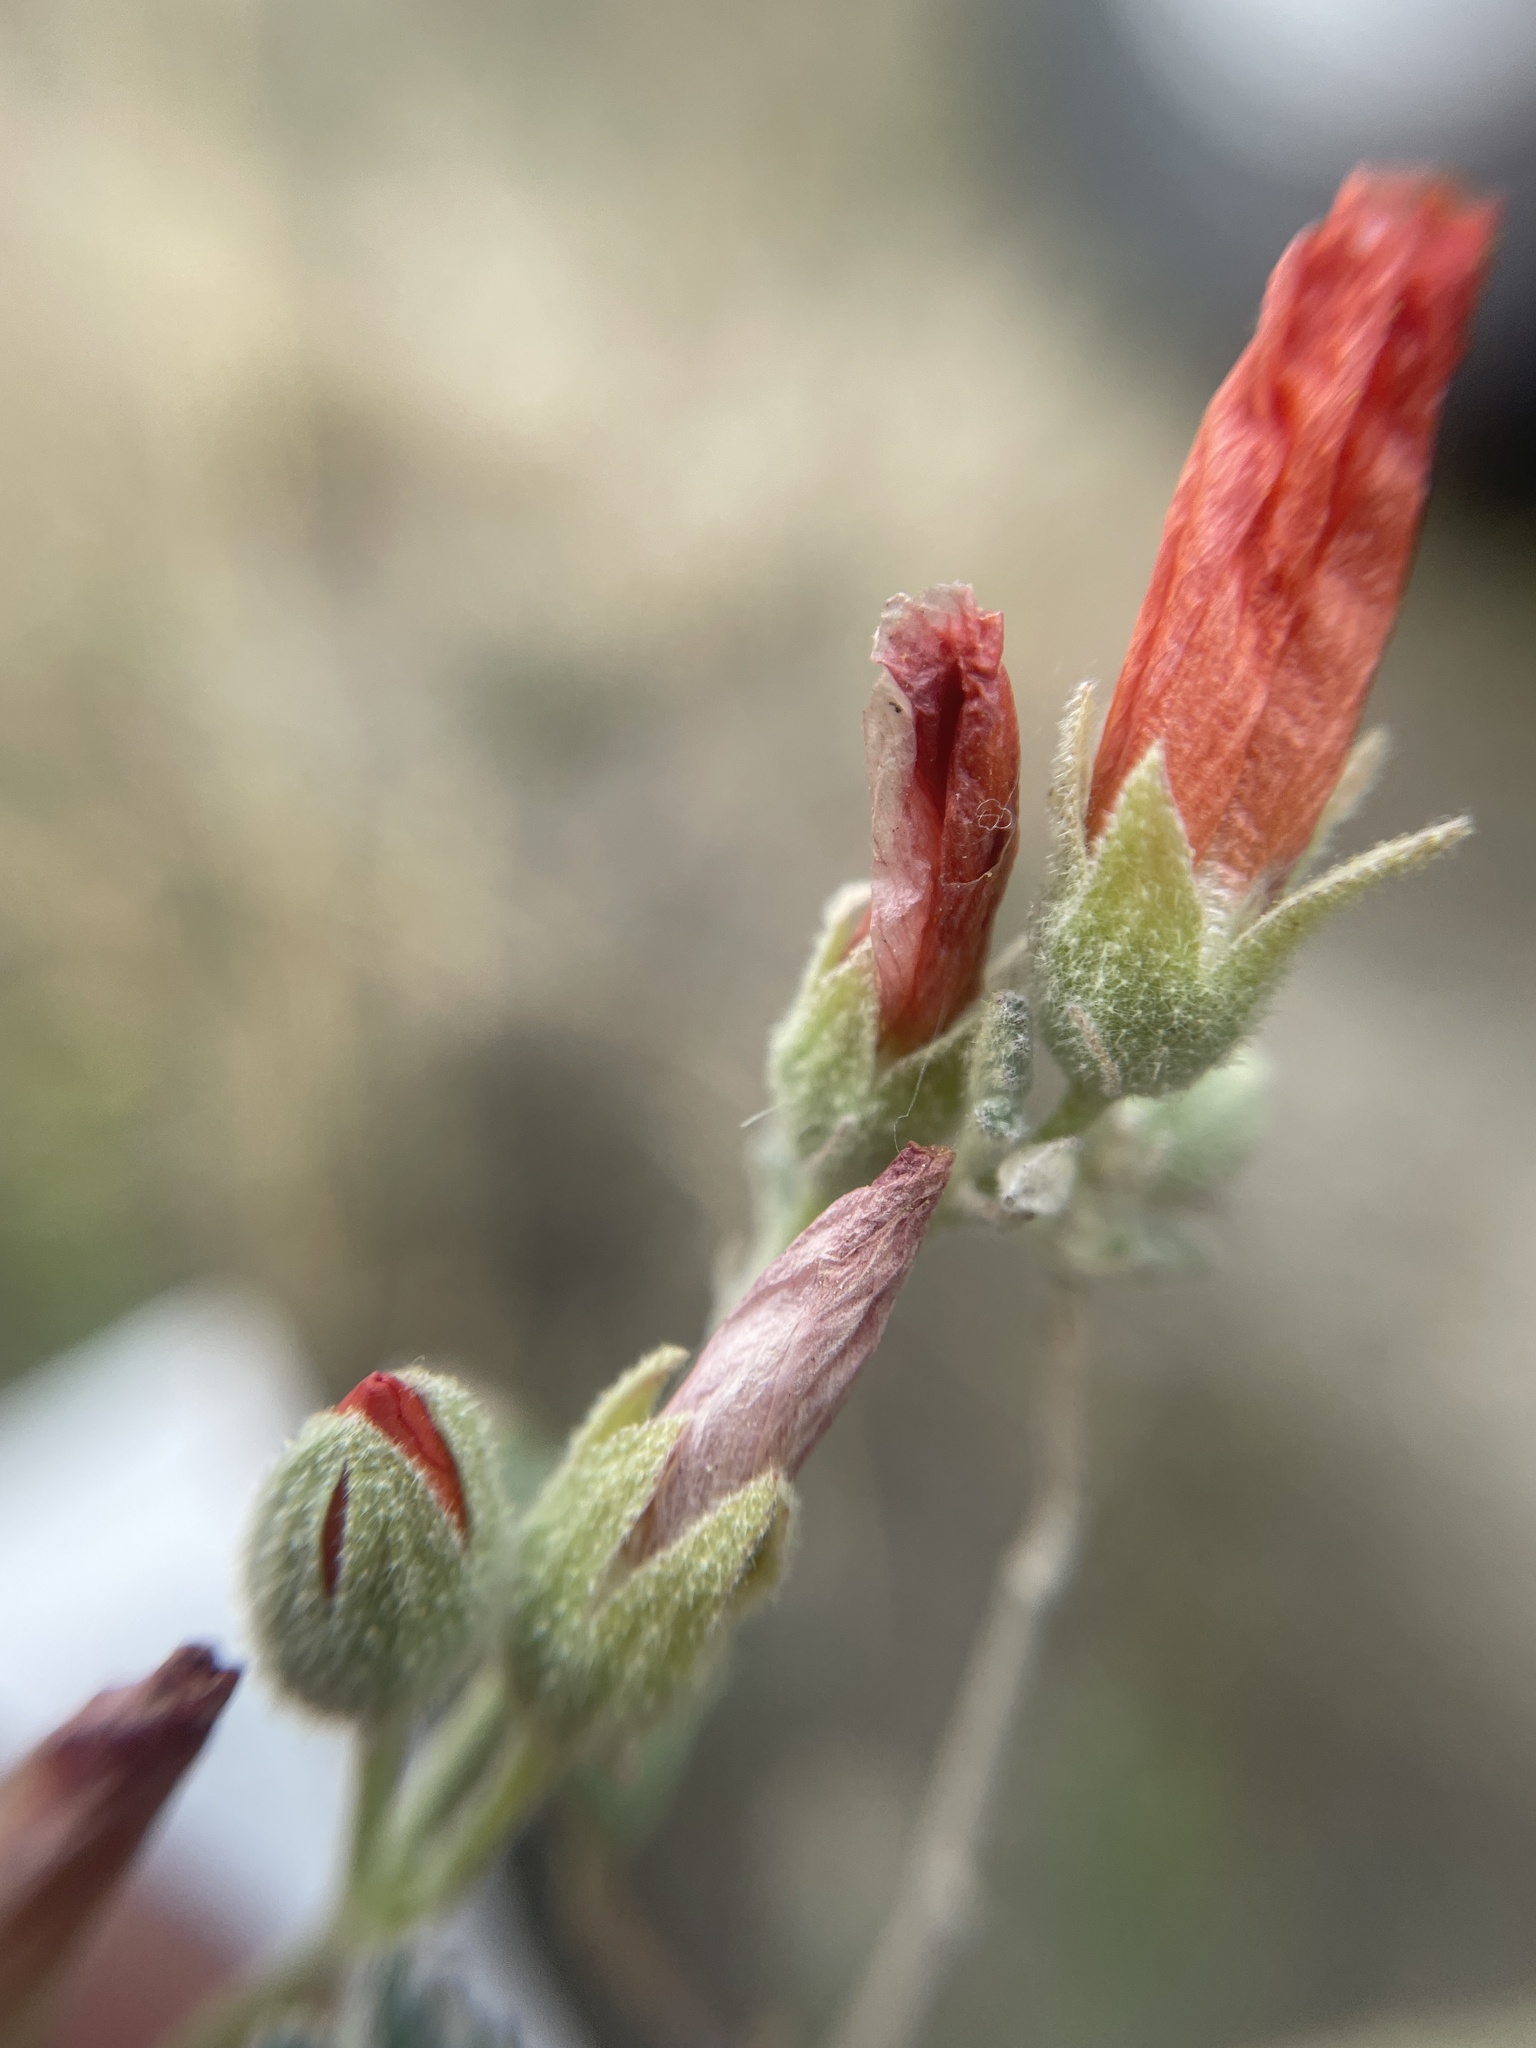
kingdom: Plantae
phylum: Tracheophyta
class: Magnoliopsida
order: Malvales
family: Malvaceae
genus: Sphaeralcea
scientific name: Sphaeralcea parvifolia
